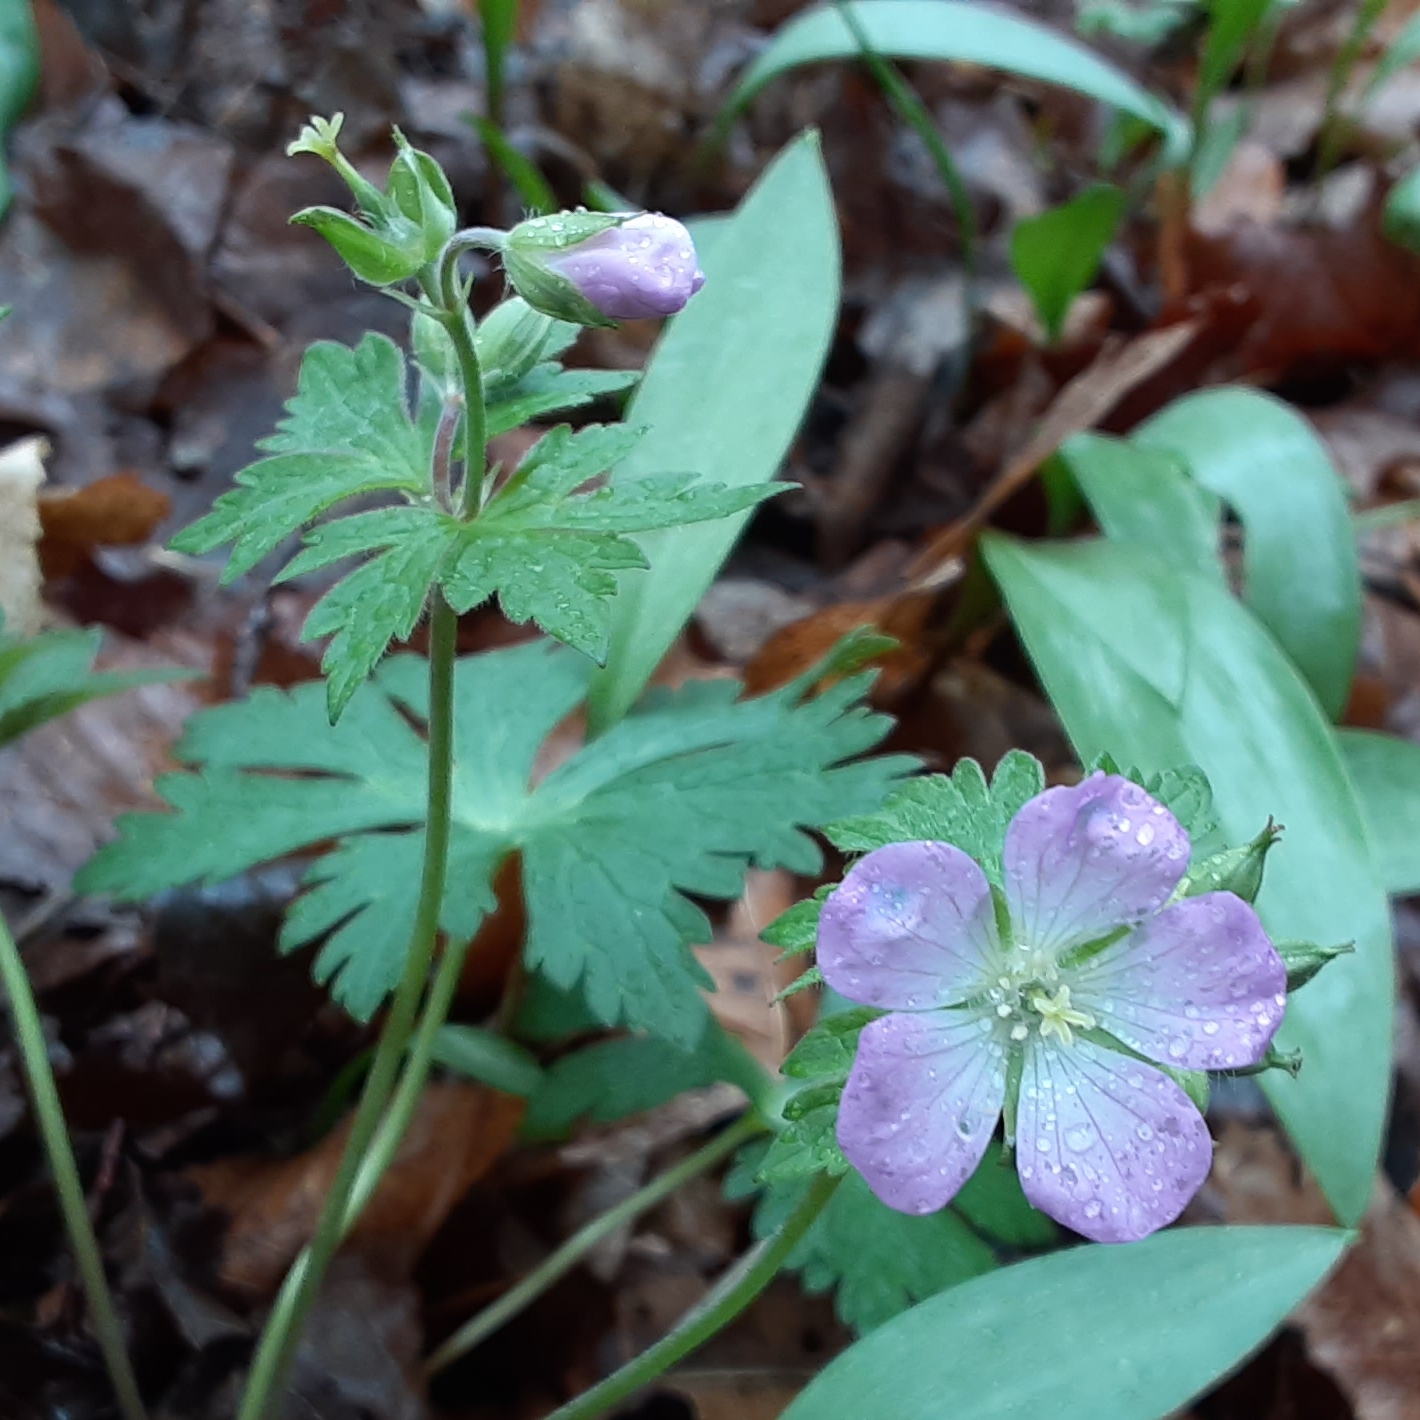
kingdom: Plantae
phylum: Tracheophyta
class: Magnoliopsida
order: Geraniales
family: Geraniaceae
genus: Geranium
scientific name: Geranium maculatum
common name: Spotted geranium
